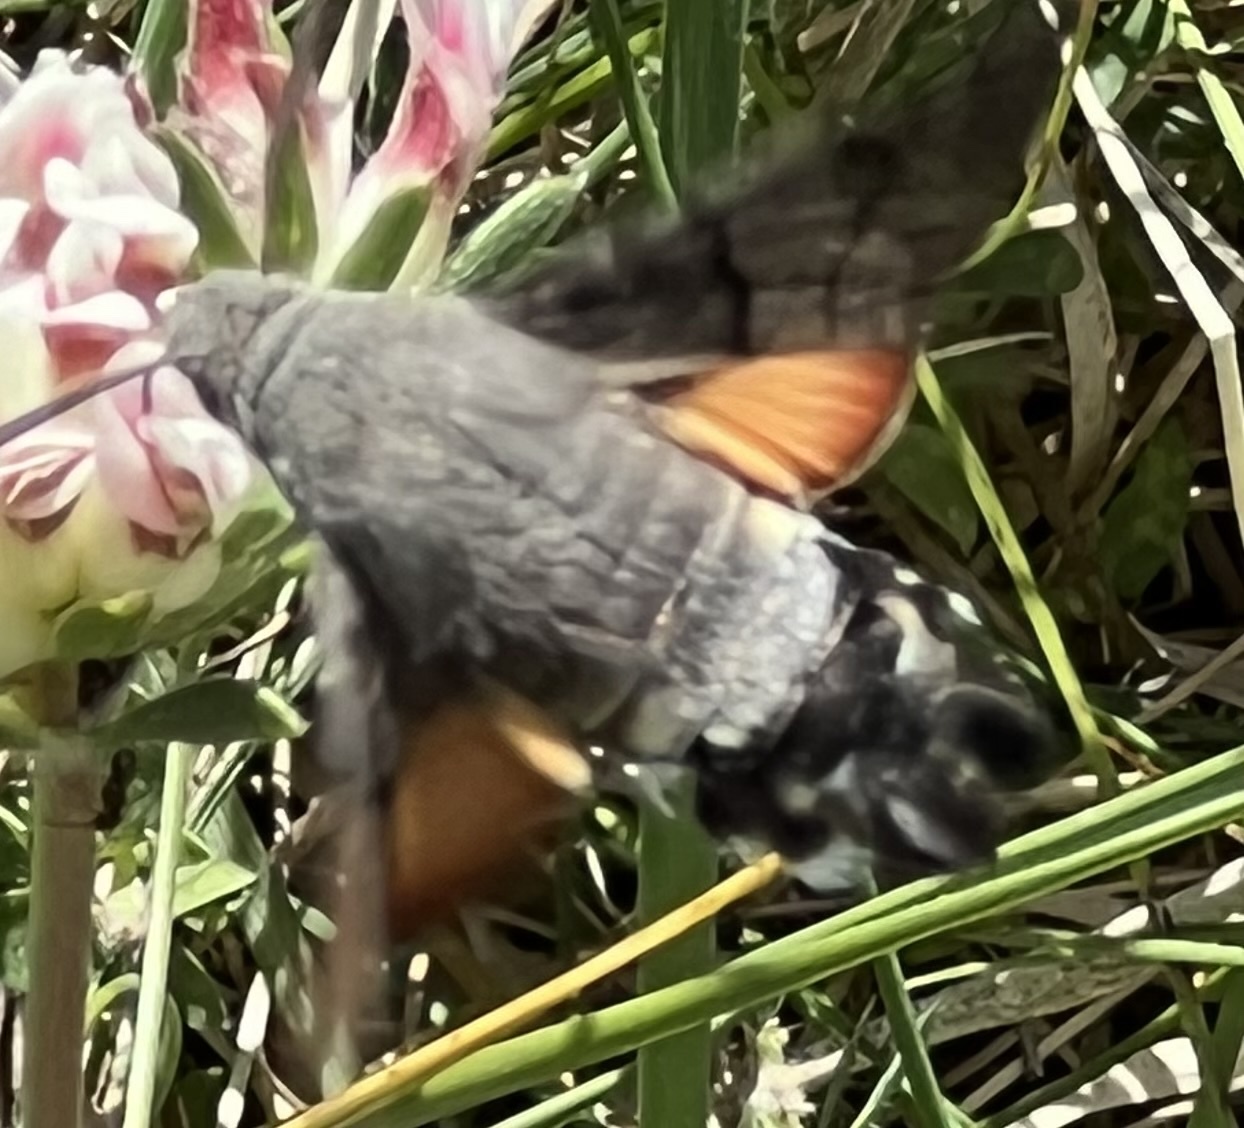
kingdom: Animalia
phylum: Arthropoda
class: Insecta
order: Lepidoptera
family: Sphingidae
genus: Macroglossum
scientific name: Macroglossum stellatarum
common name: Humming-bird hawk-moth
